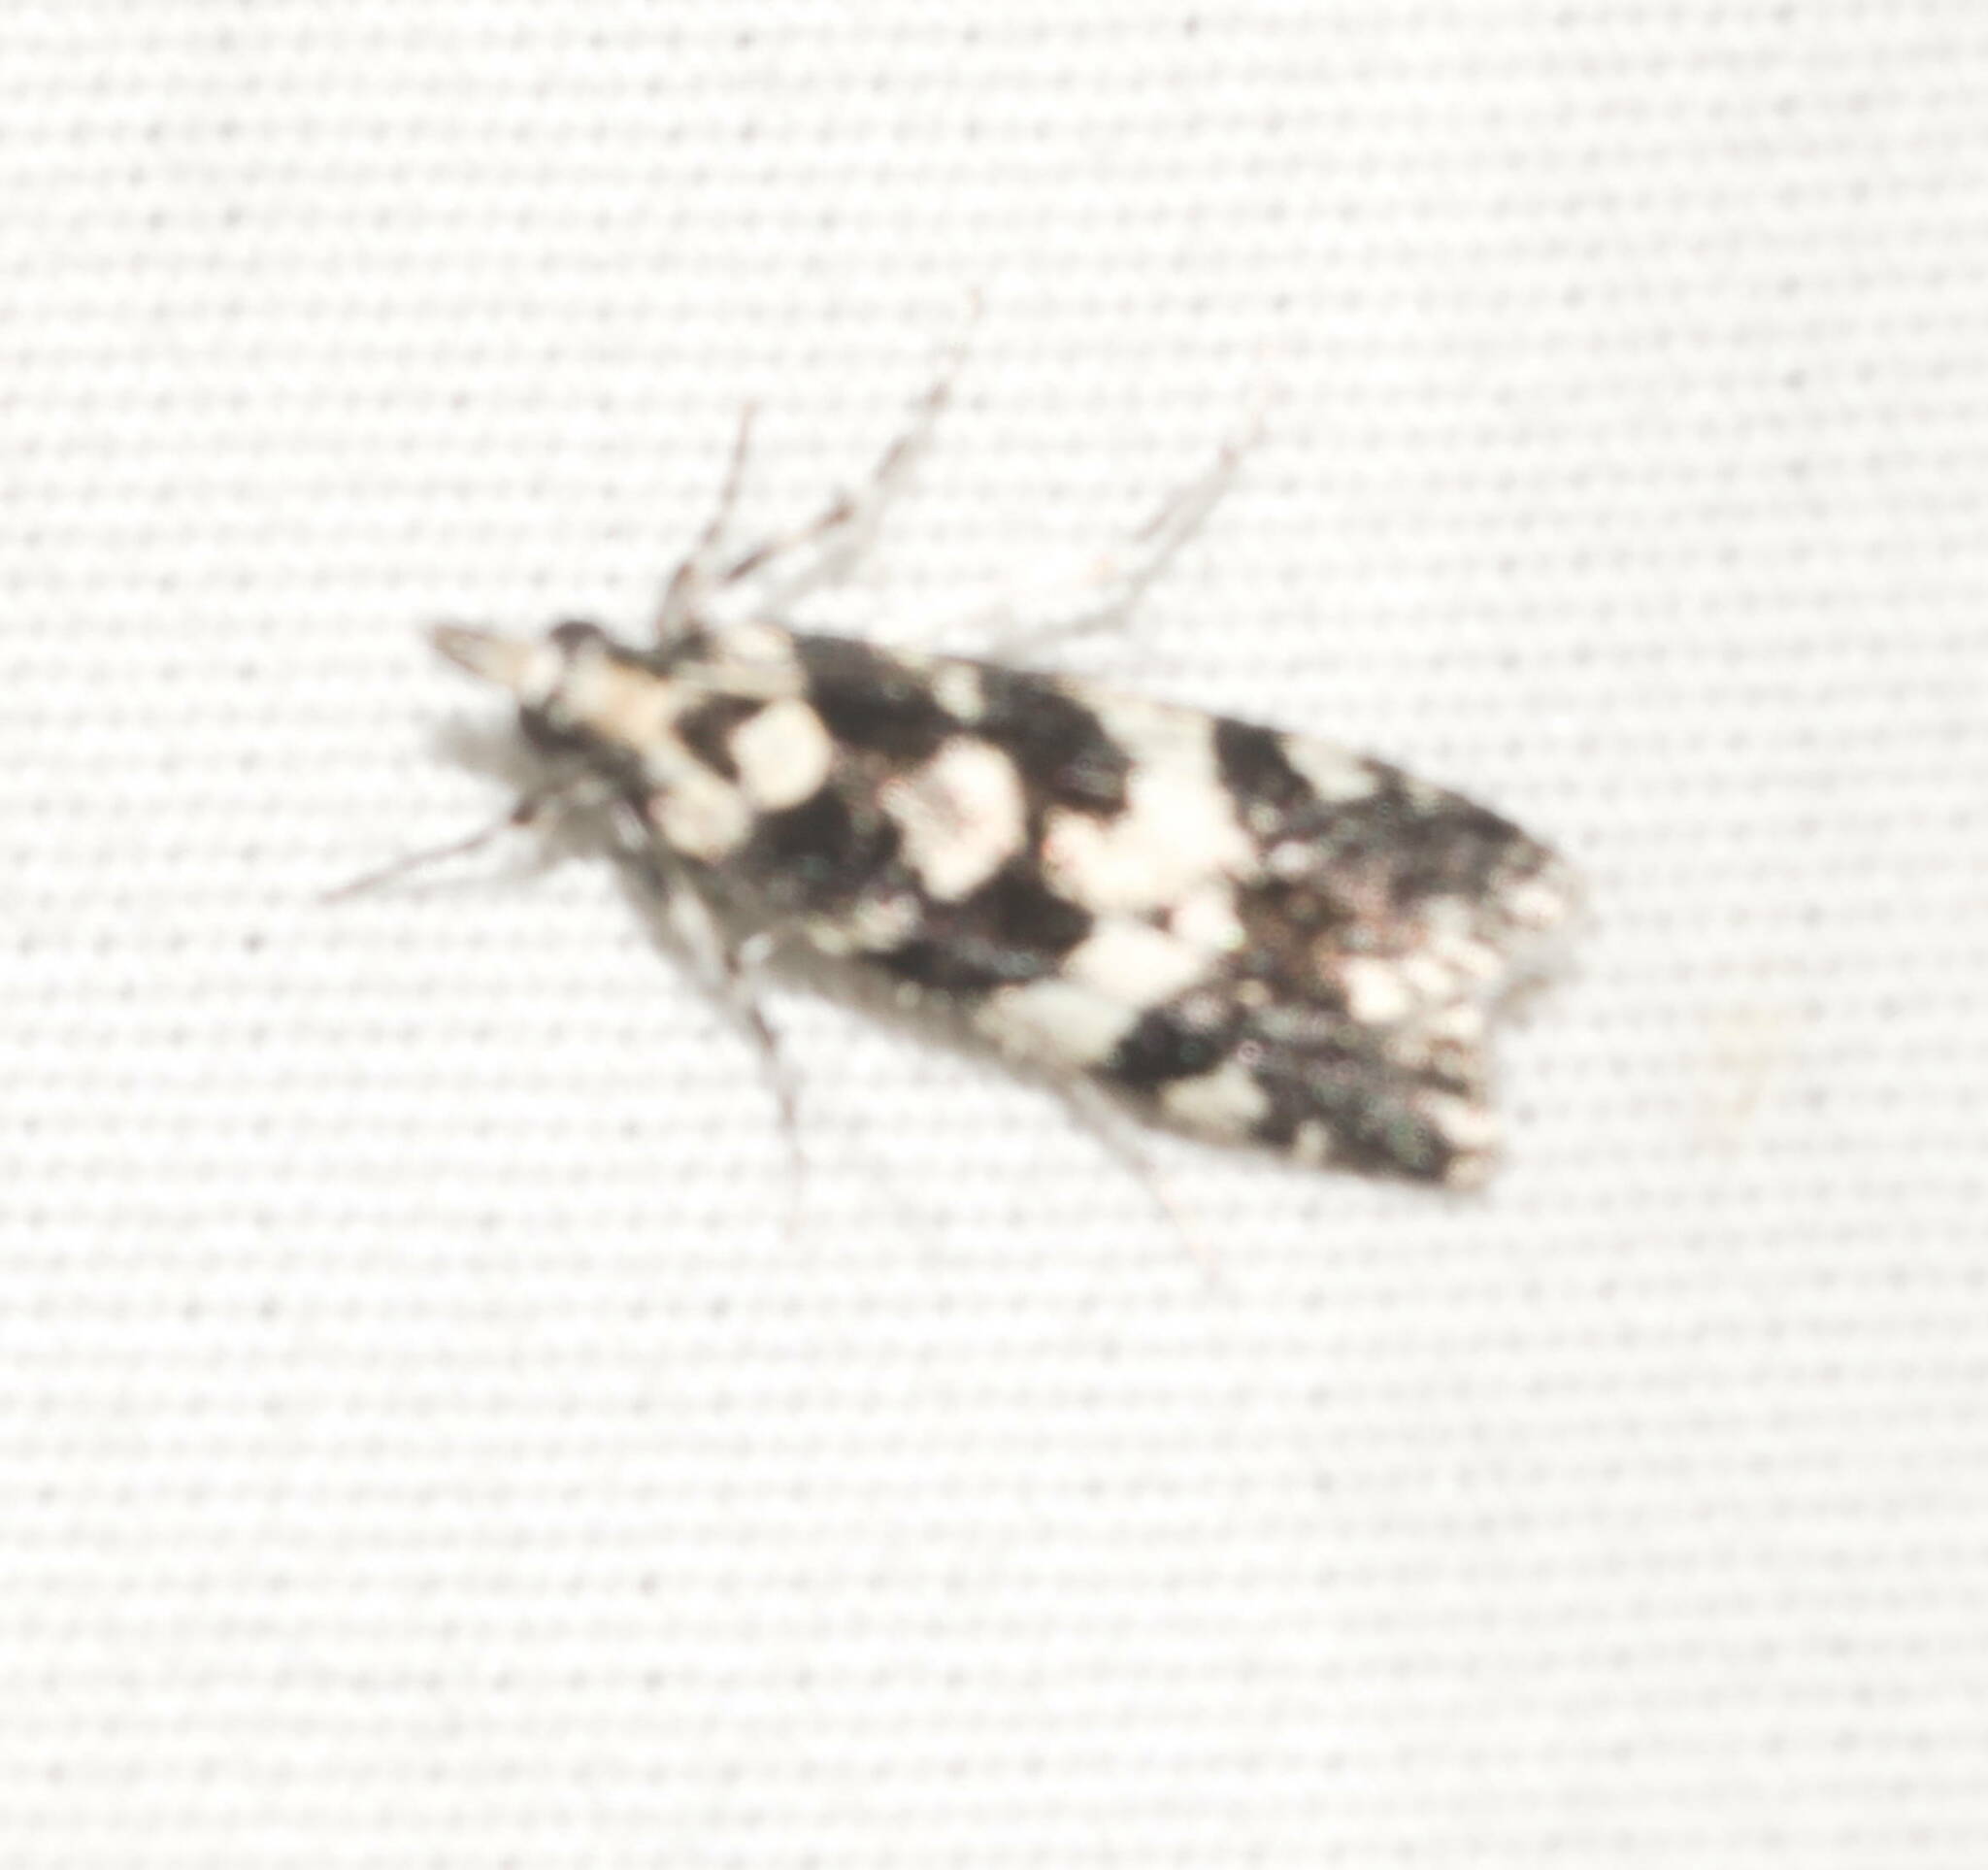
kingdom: Animalia
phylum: Arthropoda
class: Insecta
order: Lepidoptera
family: Crambidae
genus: Eudonia
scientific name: Eudonia mesoleuca
